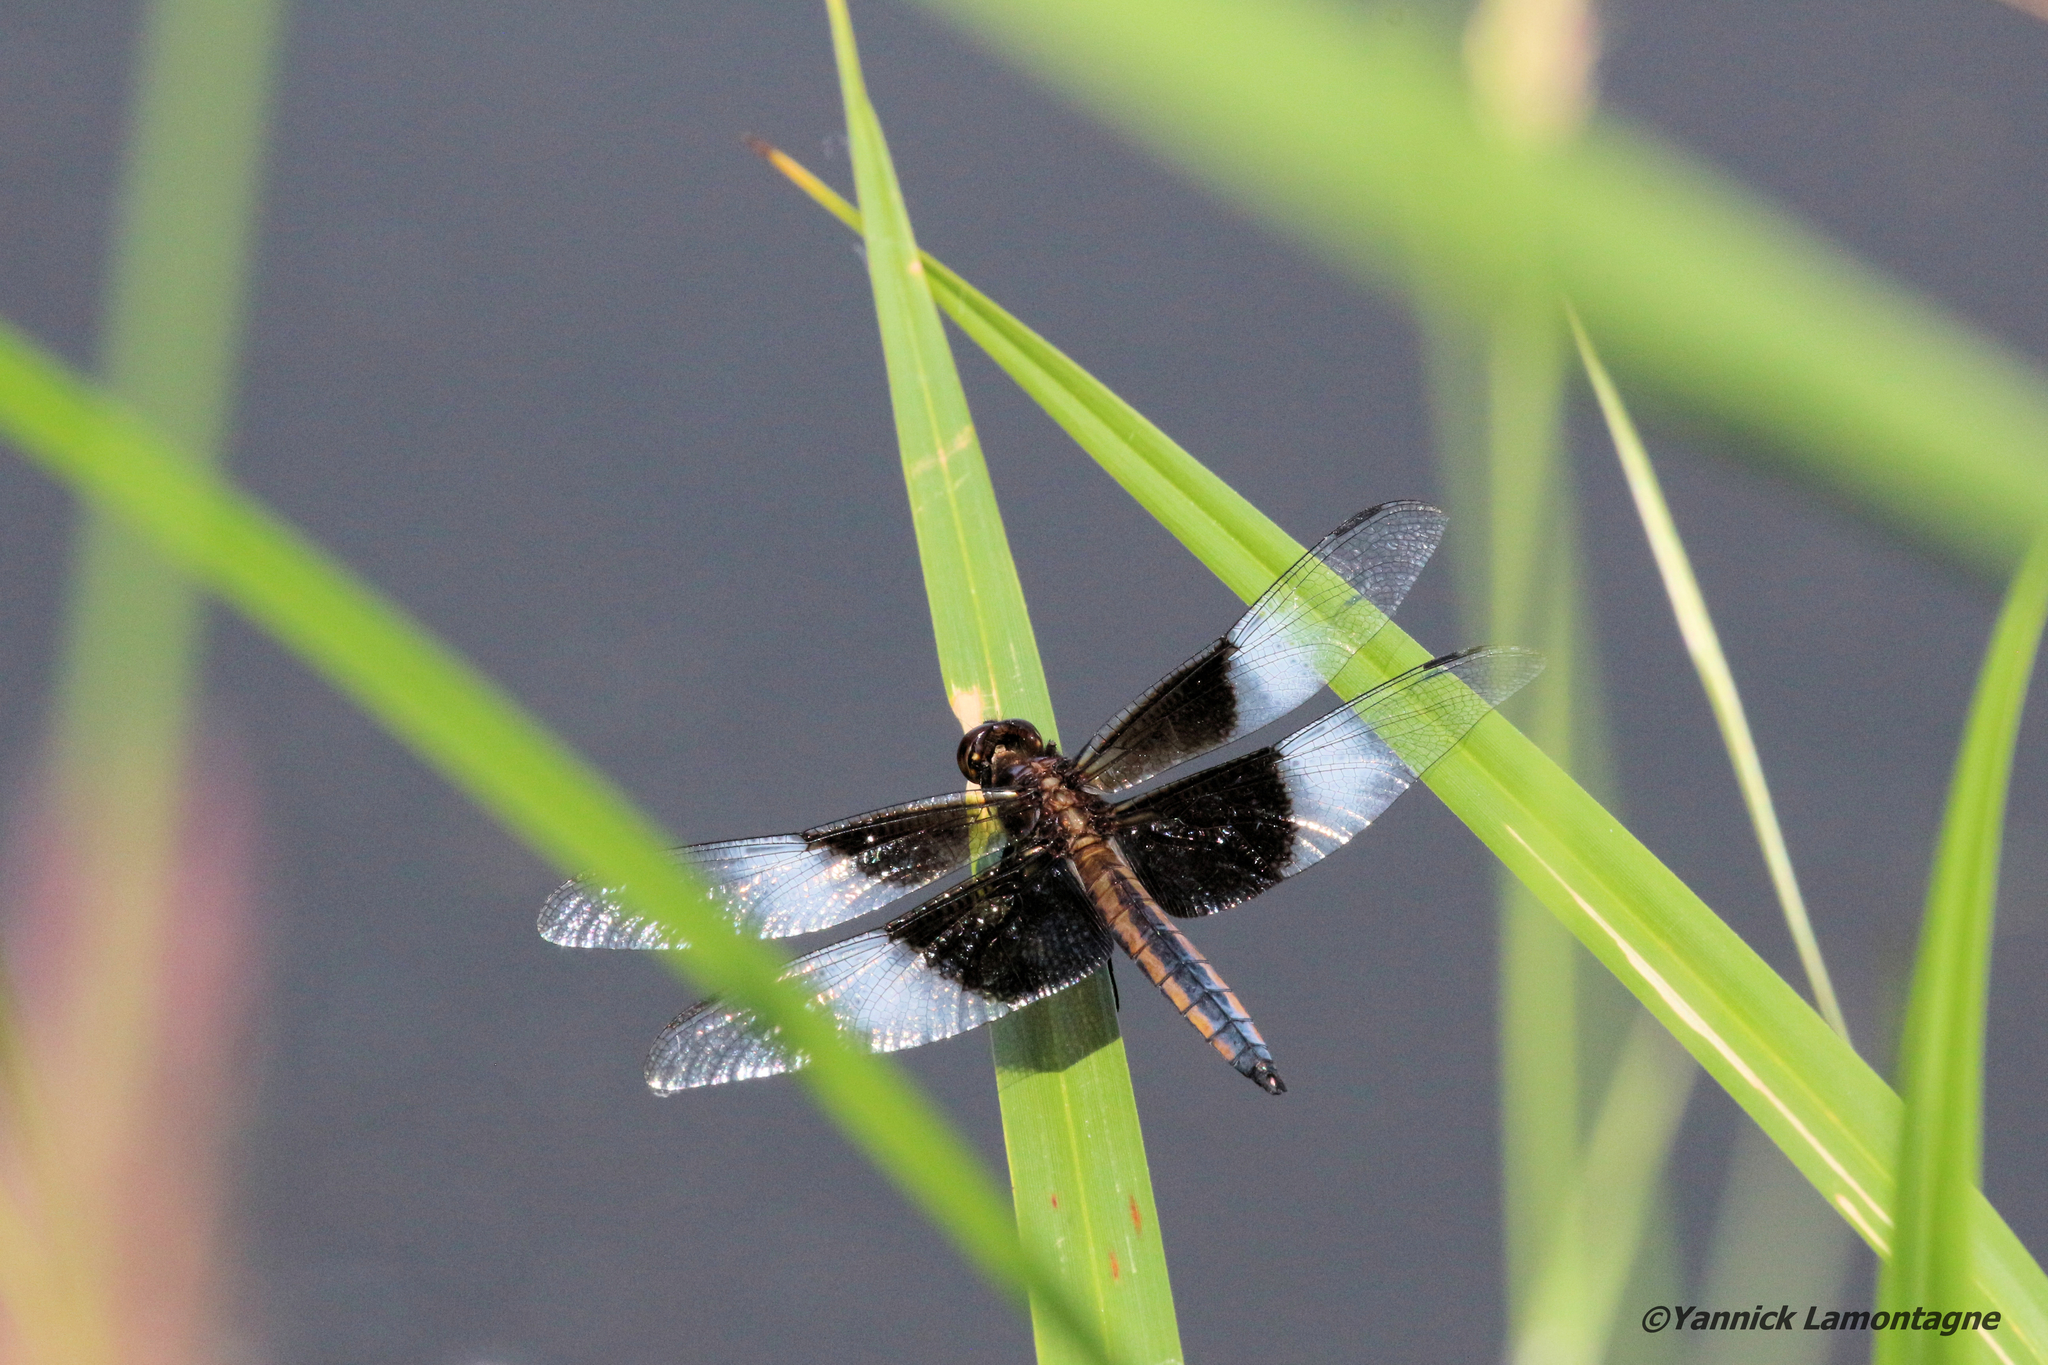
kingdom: Animalia
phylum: Arthropoda
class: Insecta
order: Odonata
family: Libellulidae
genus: Libellula
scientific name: Libellula luctuosa
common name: Widow skimmer
